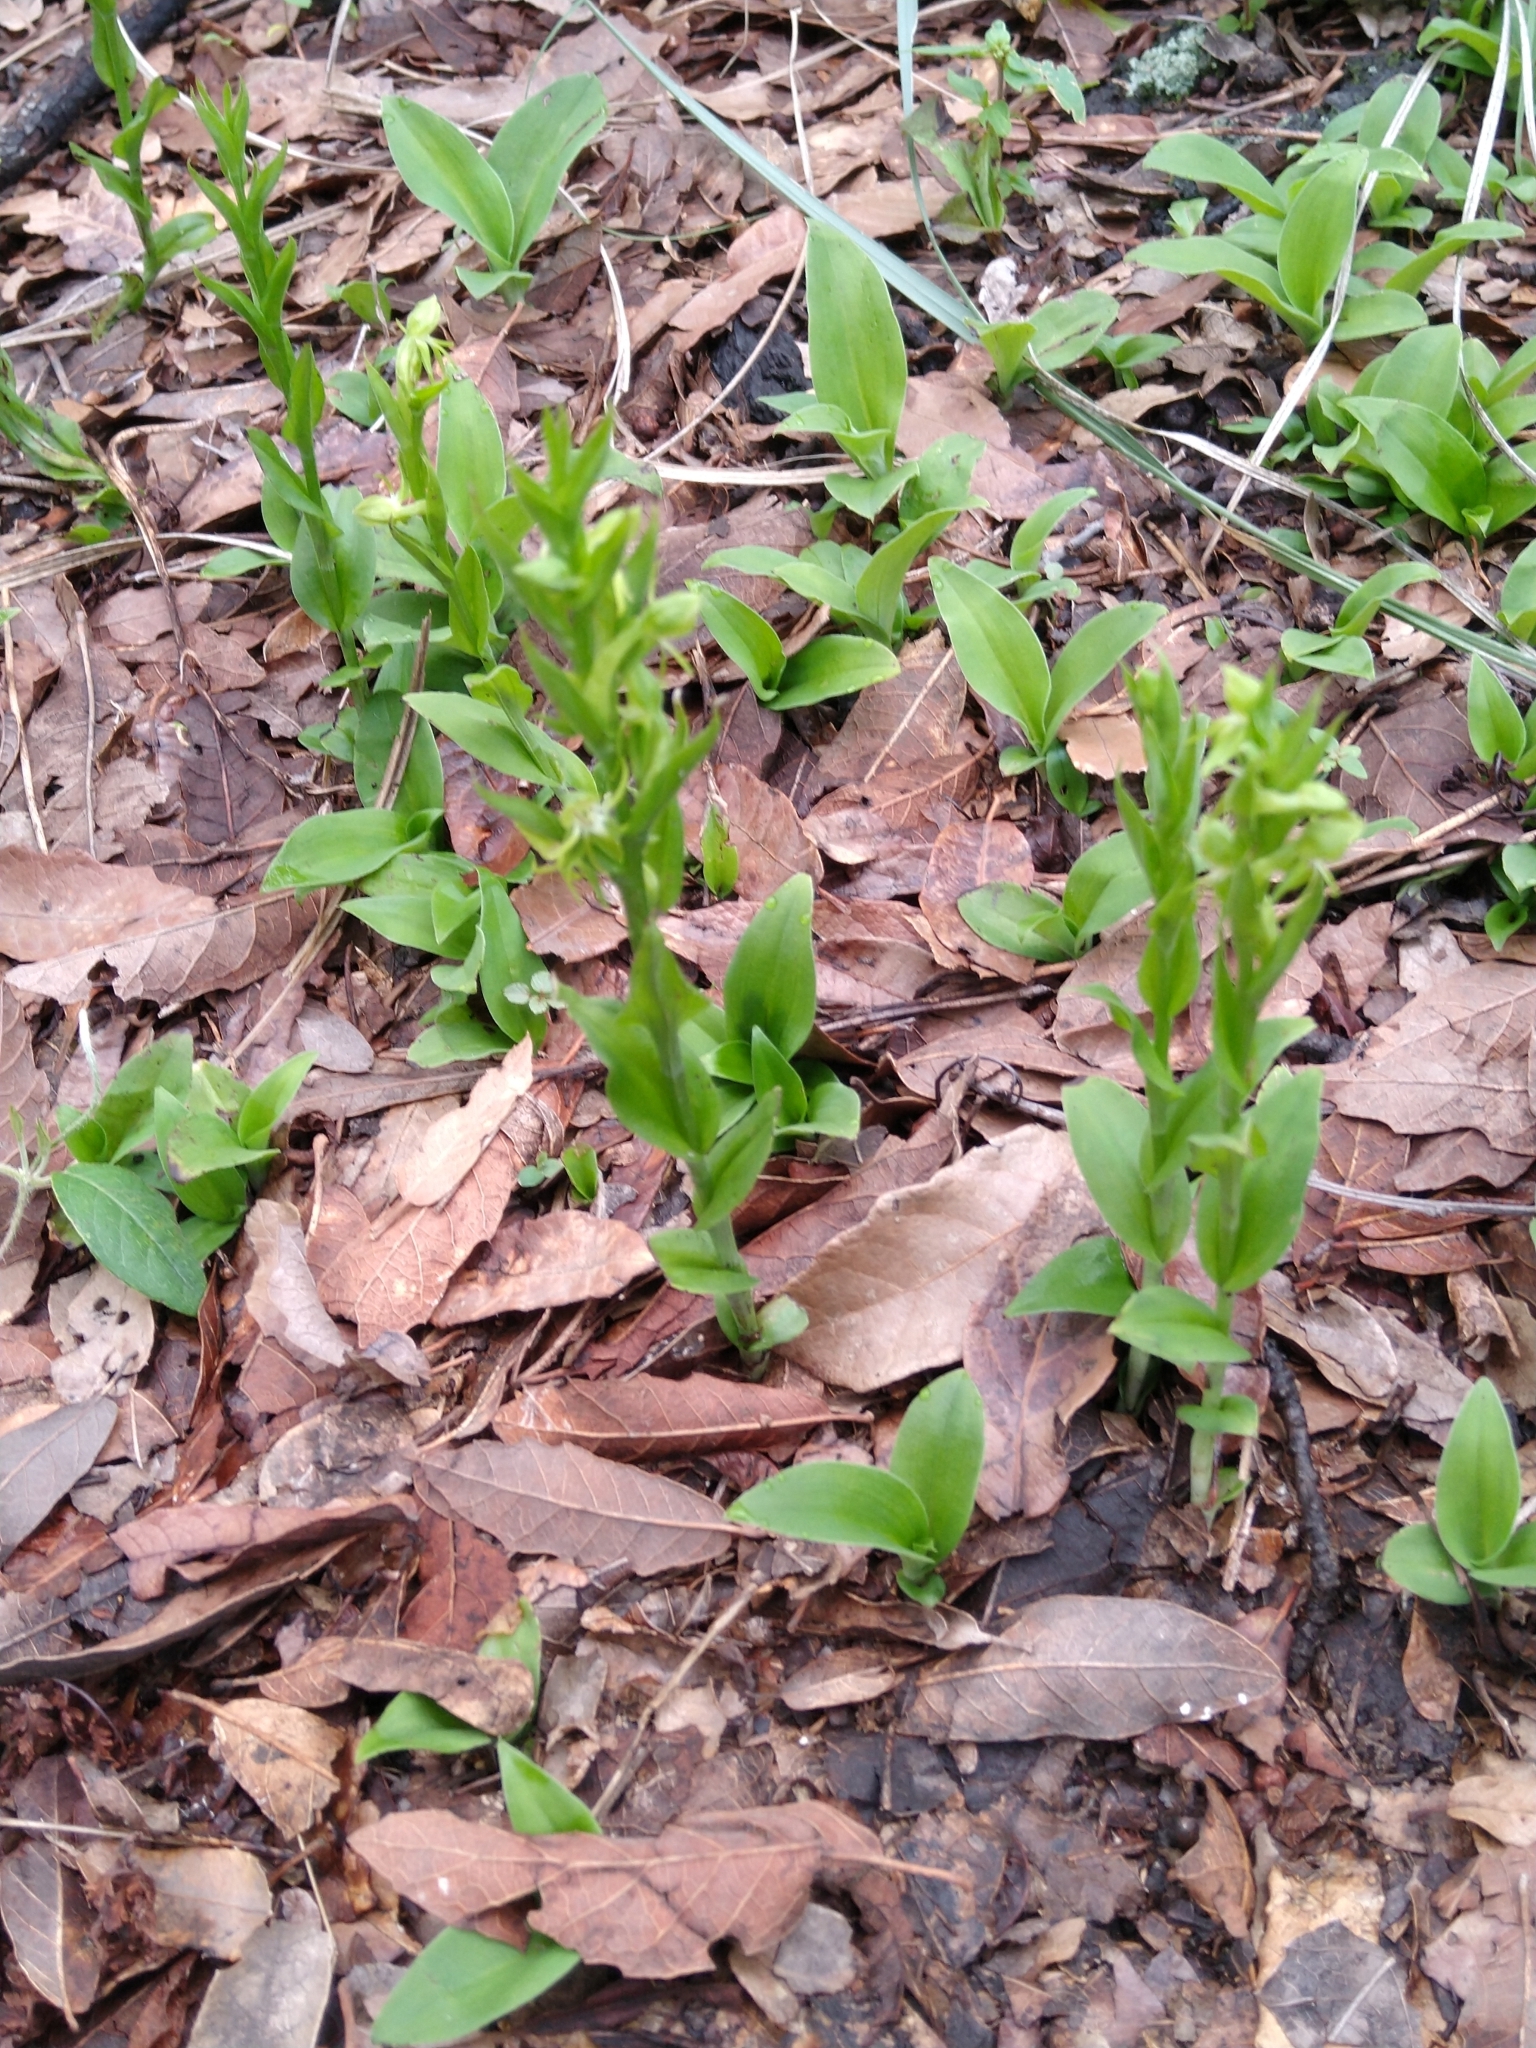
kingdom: Plantae
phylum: Tracheophyta
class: Liliopsida
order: Asparagales
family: Orchidaceae
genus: Habenaria
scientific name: Habenaria novemfida
